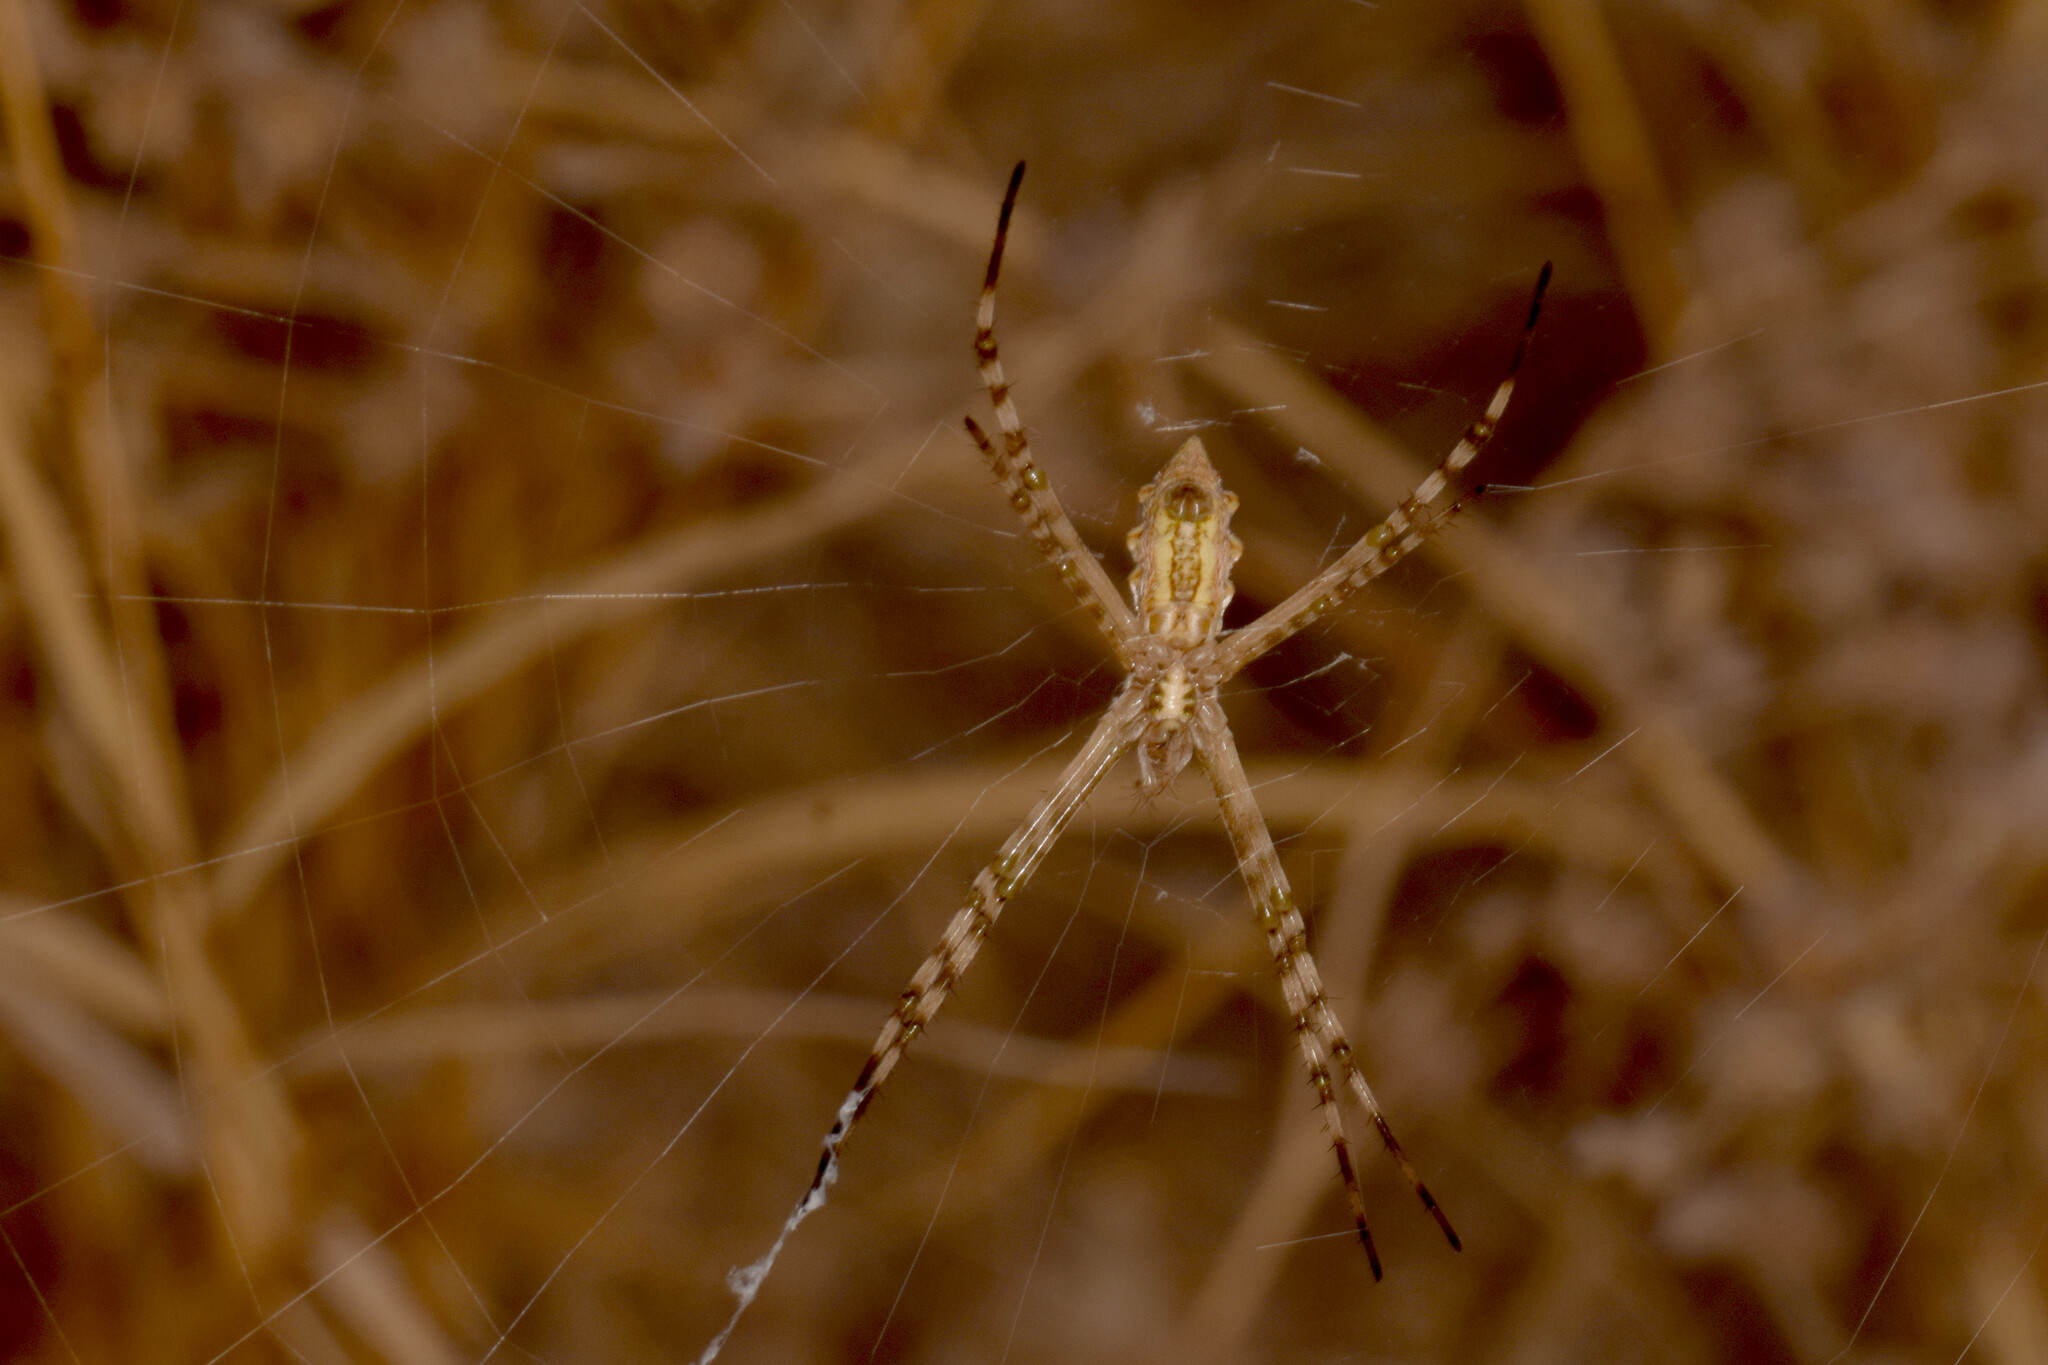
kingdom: Animalia
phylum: Arthropoda
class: Arachnida
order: Araneae
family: Araneidae
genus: Argiope
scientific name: Argiope lobata
